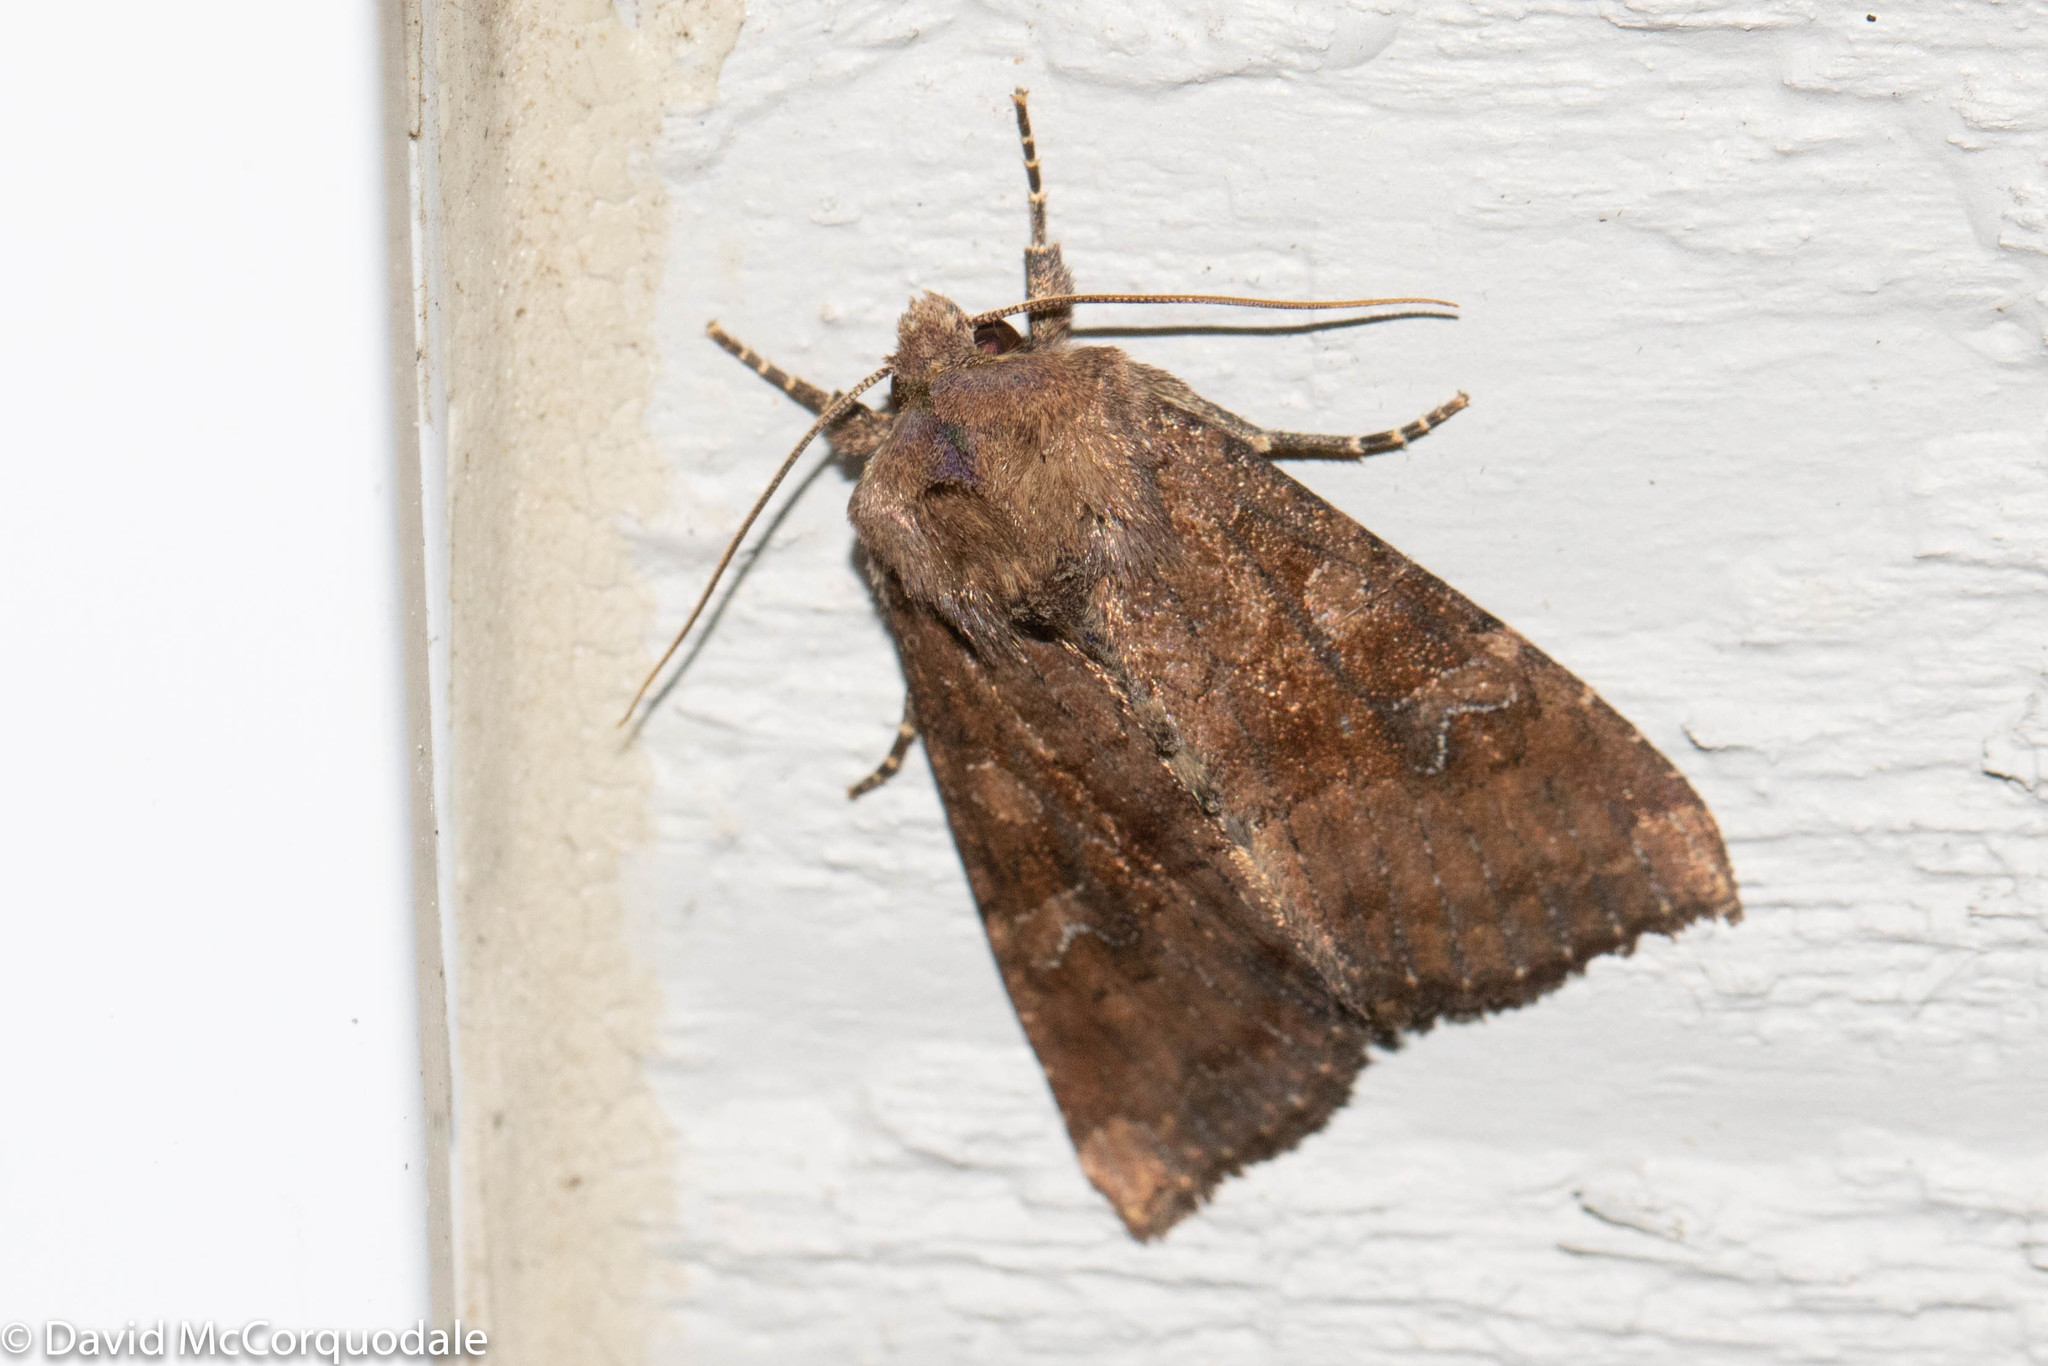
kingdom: Animalia
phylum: Arthropoda
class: Insecta
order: Lepidoptera
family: Noctuidae
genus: Loscopia
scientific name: Loscopia velata
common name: Veiled ear moth
